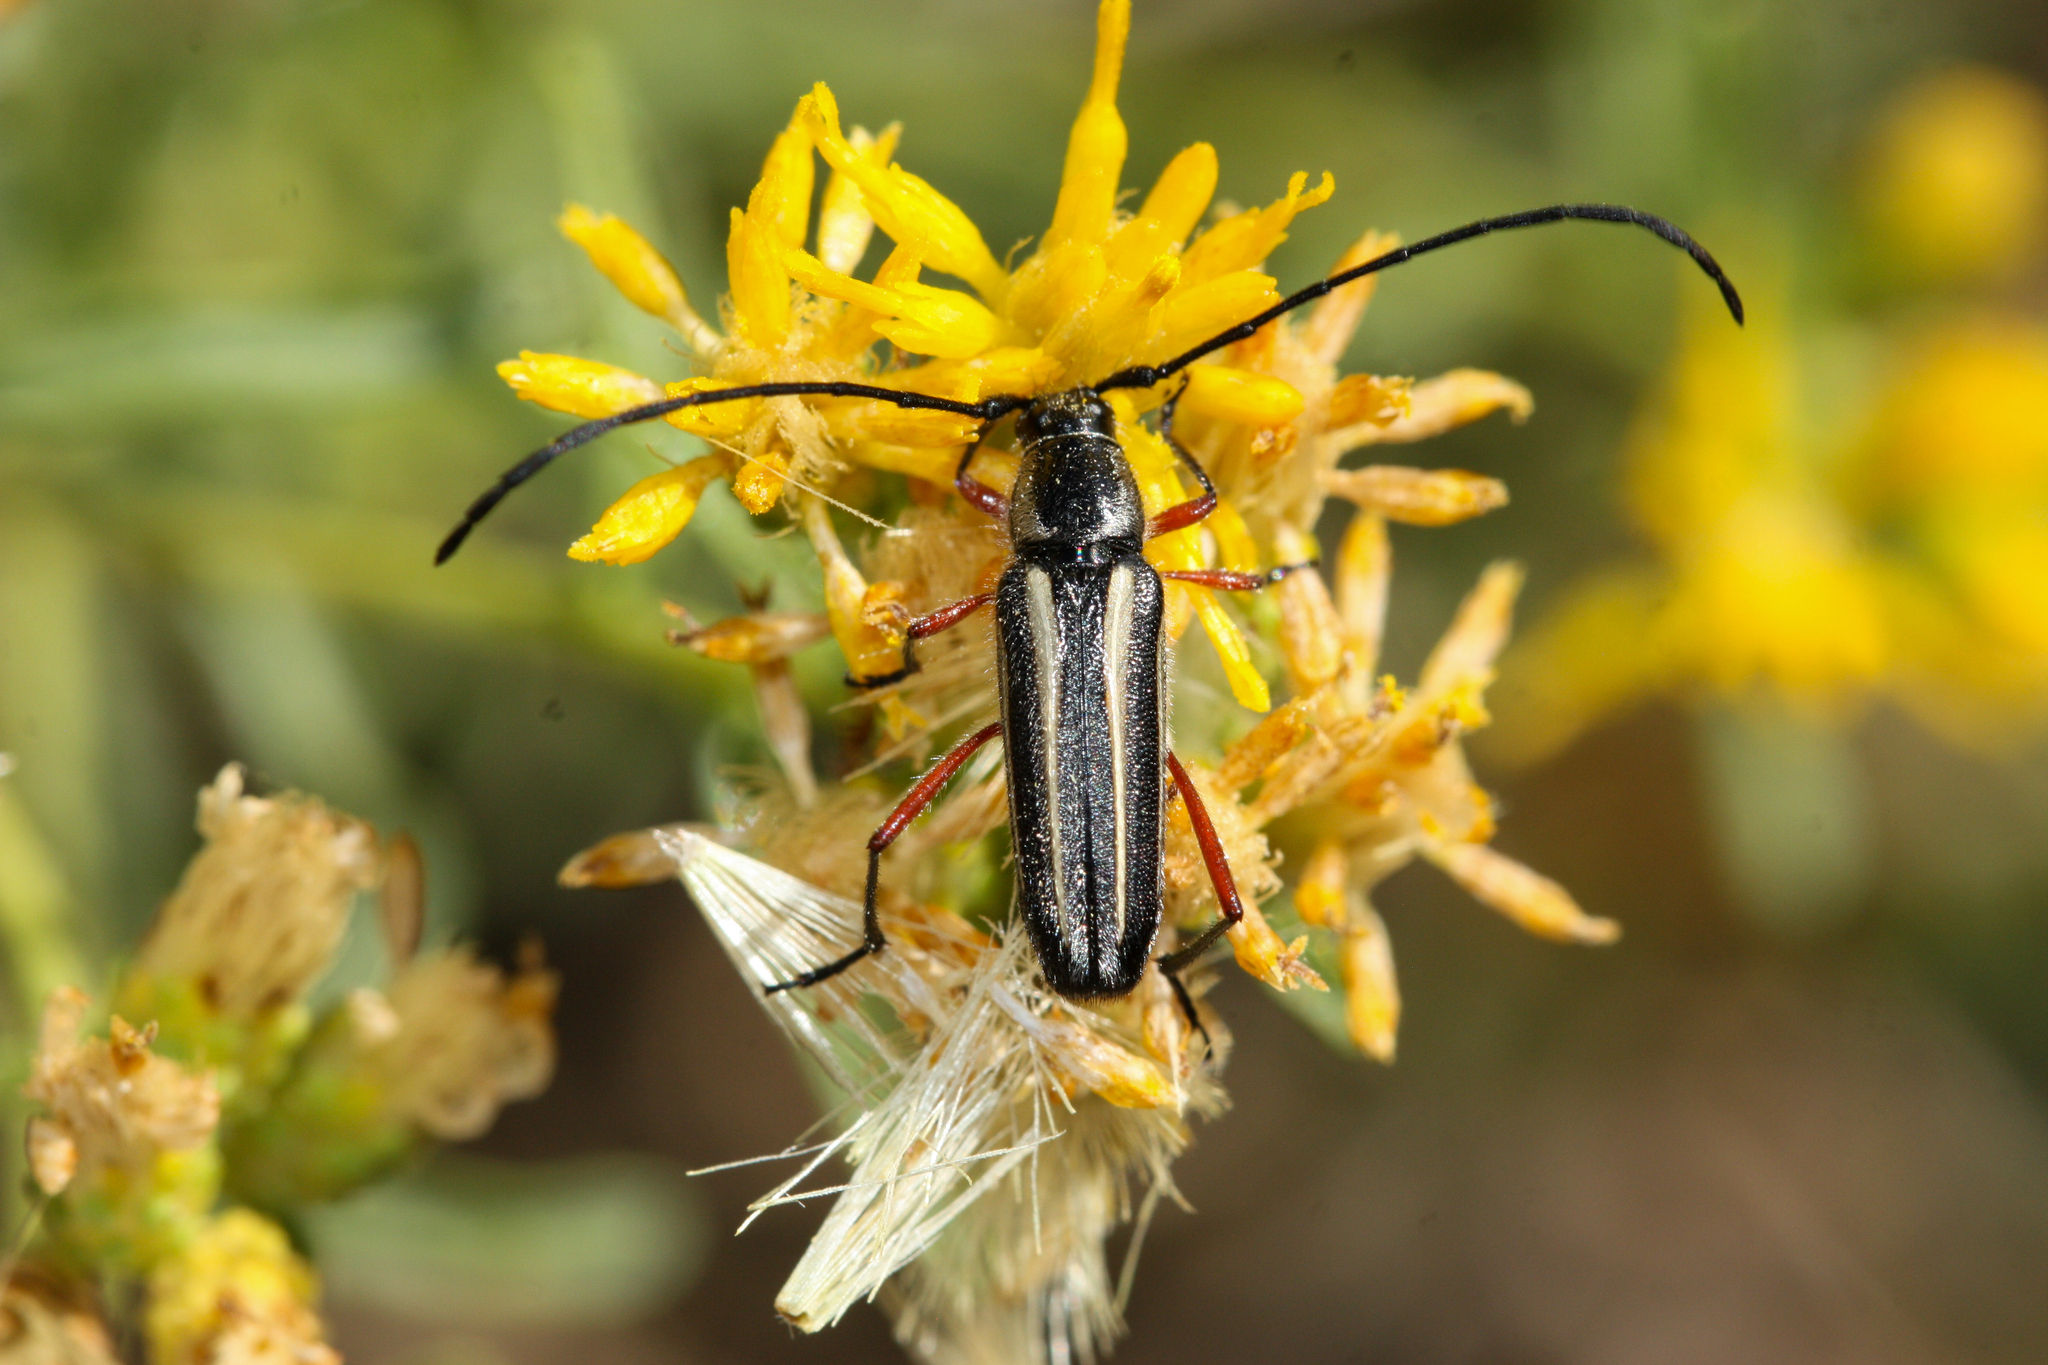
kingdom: Animalia
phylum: Arthropoda
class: Insecta
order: Coleoptera
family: Cerambycidae
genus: Sphaenothecus
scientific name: Sphaenothecus bilineatus
